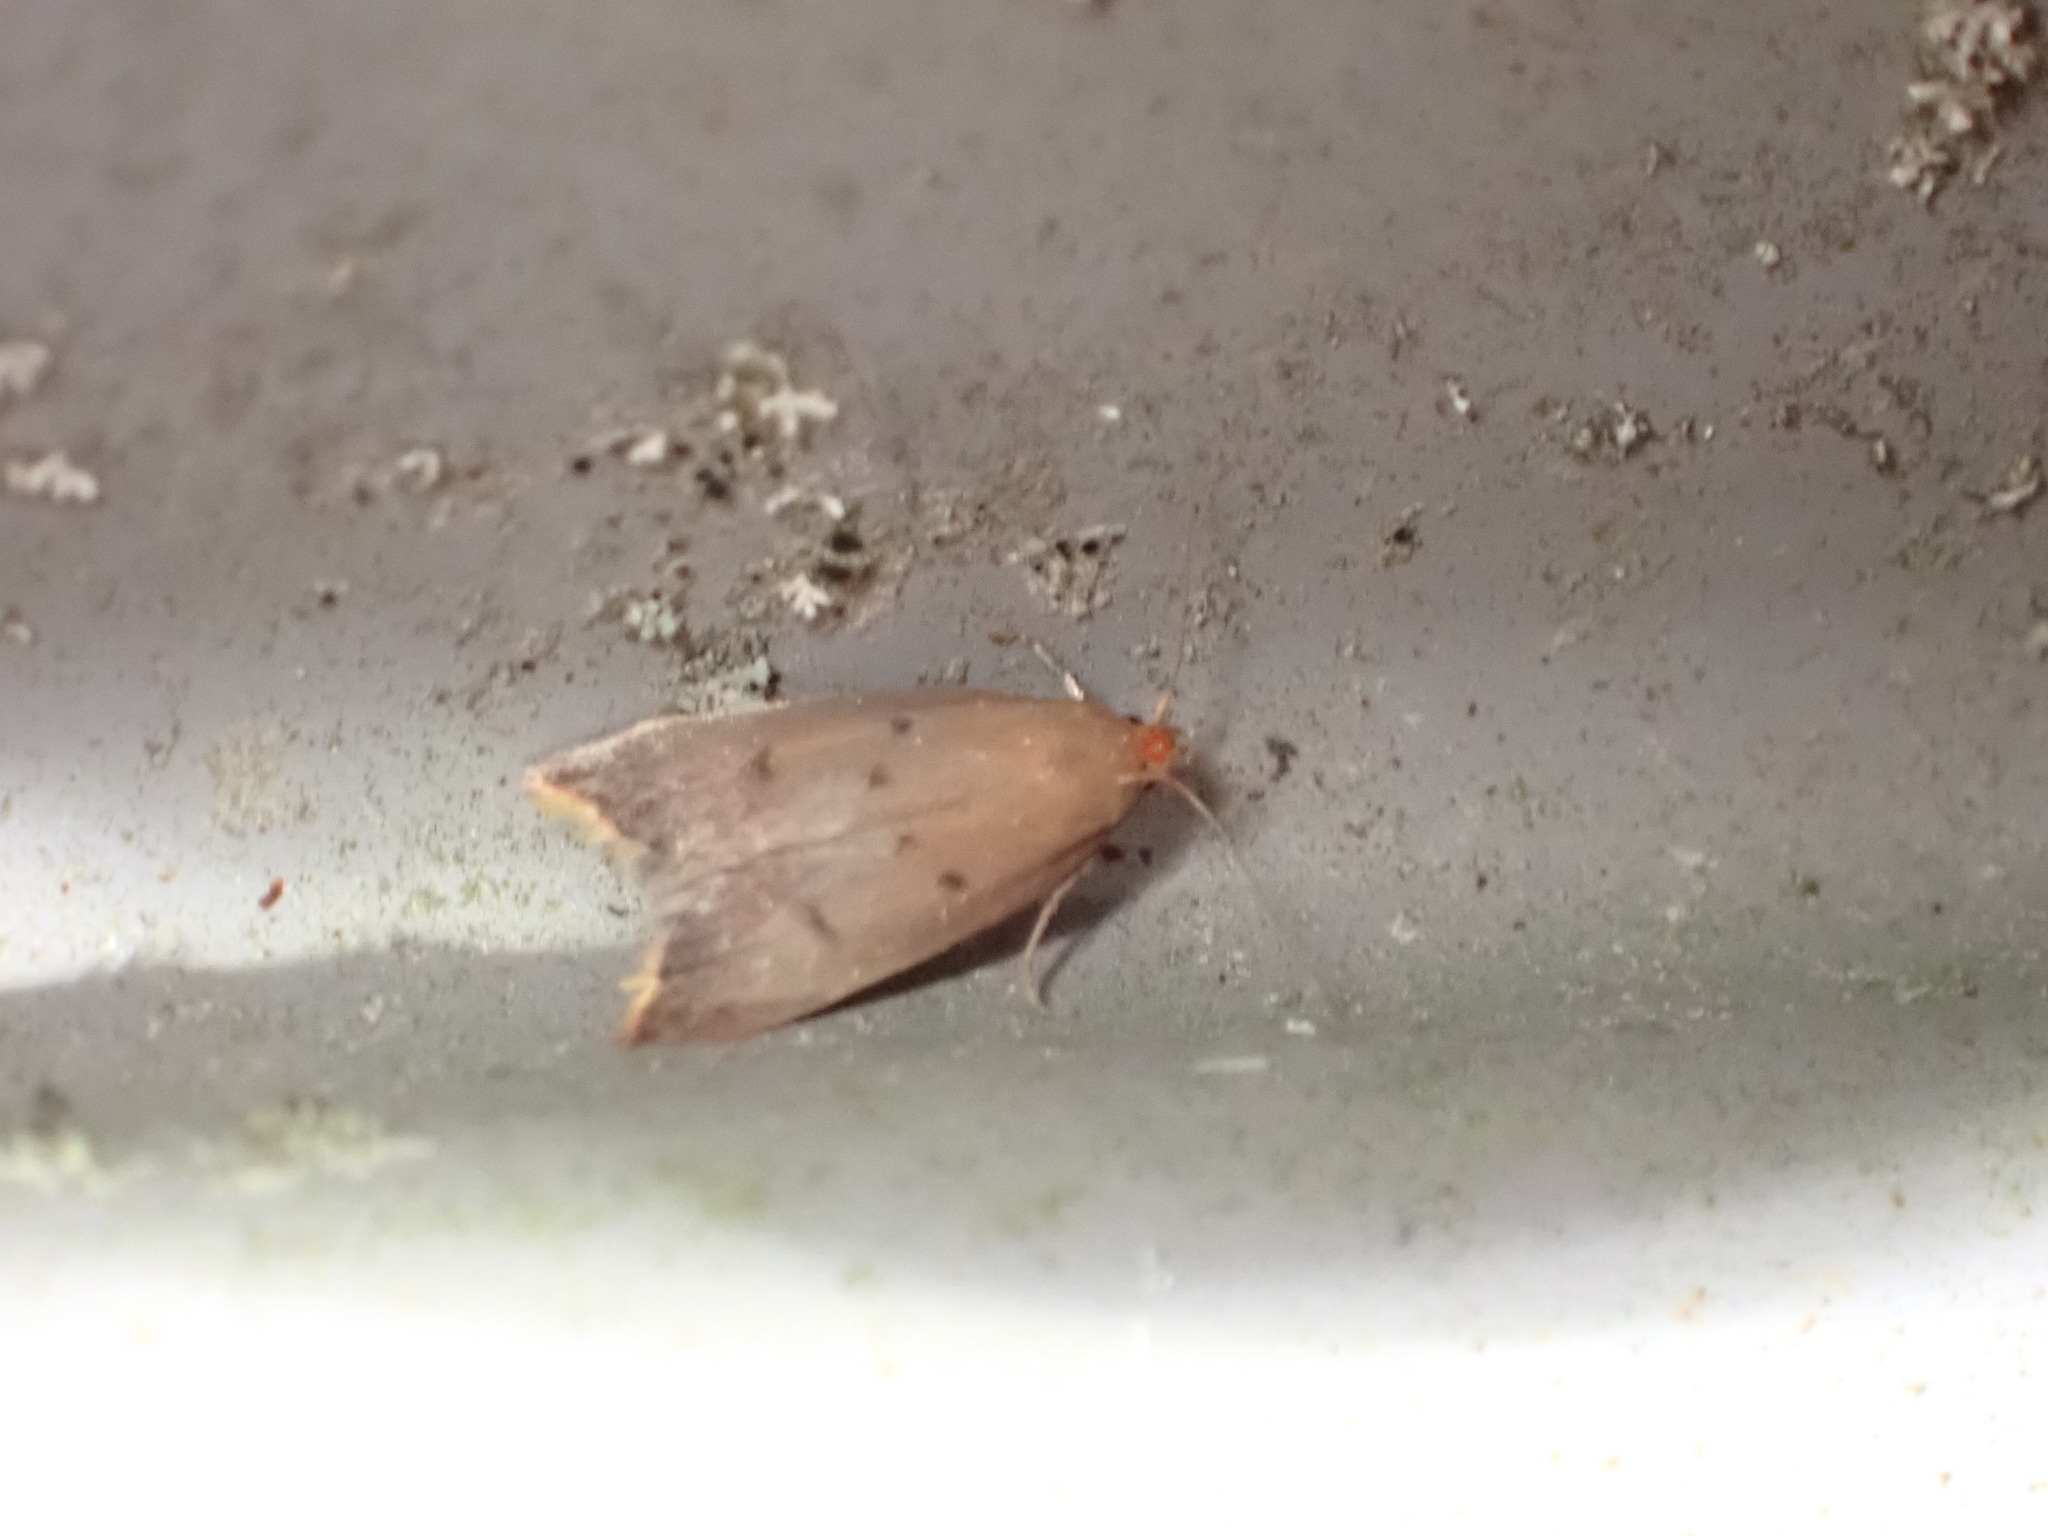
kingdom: Animalia
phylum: Arthropoda
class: Insecta
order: Lepidoptera
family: Oecophoridae
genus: Tachystola
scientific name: Tachystola acroxantha
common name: Ruddy streak
